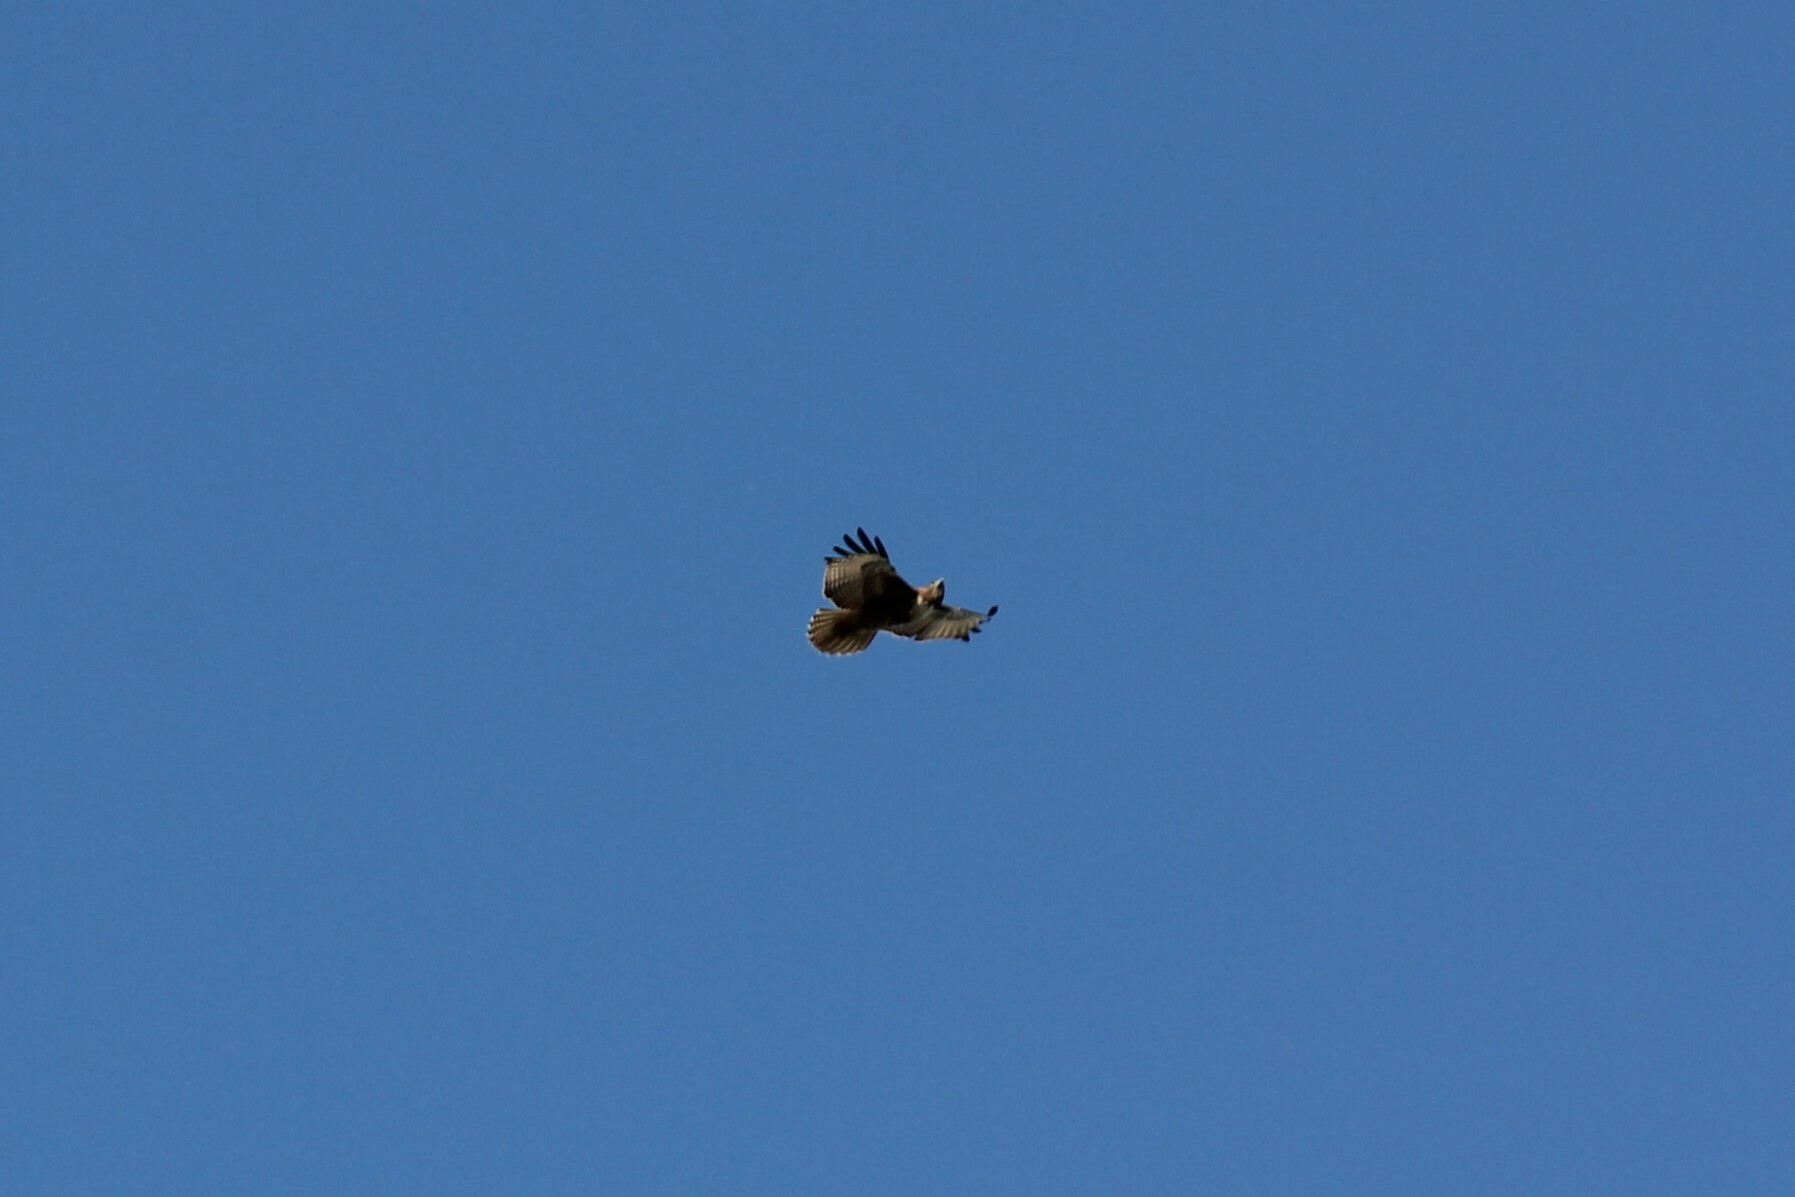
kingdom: Animalia
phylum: Chordata
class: Aves
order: Accipitriformes
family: Accipitridae
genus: Buteo
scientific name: Buteo jamaicensis
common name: Red-tailed hawk
